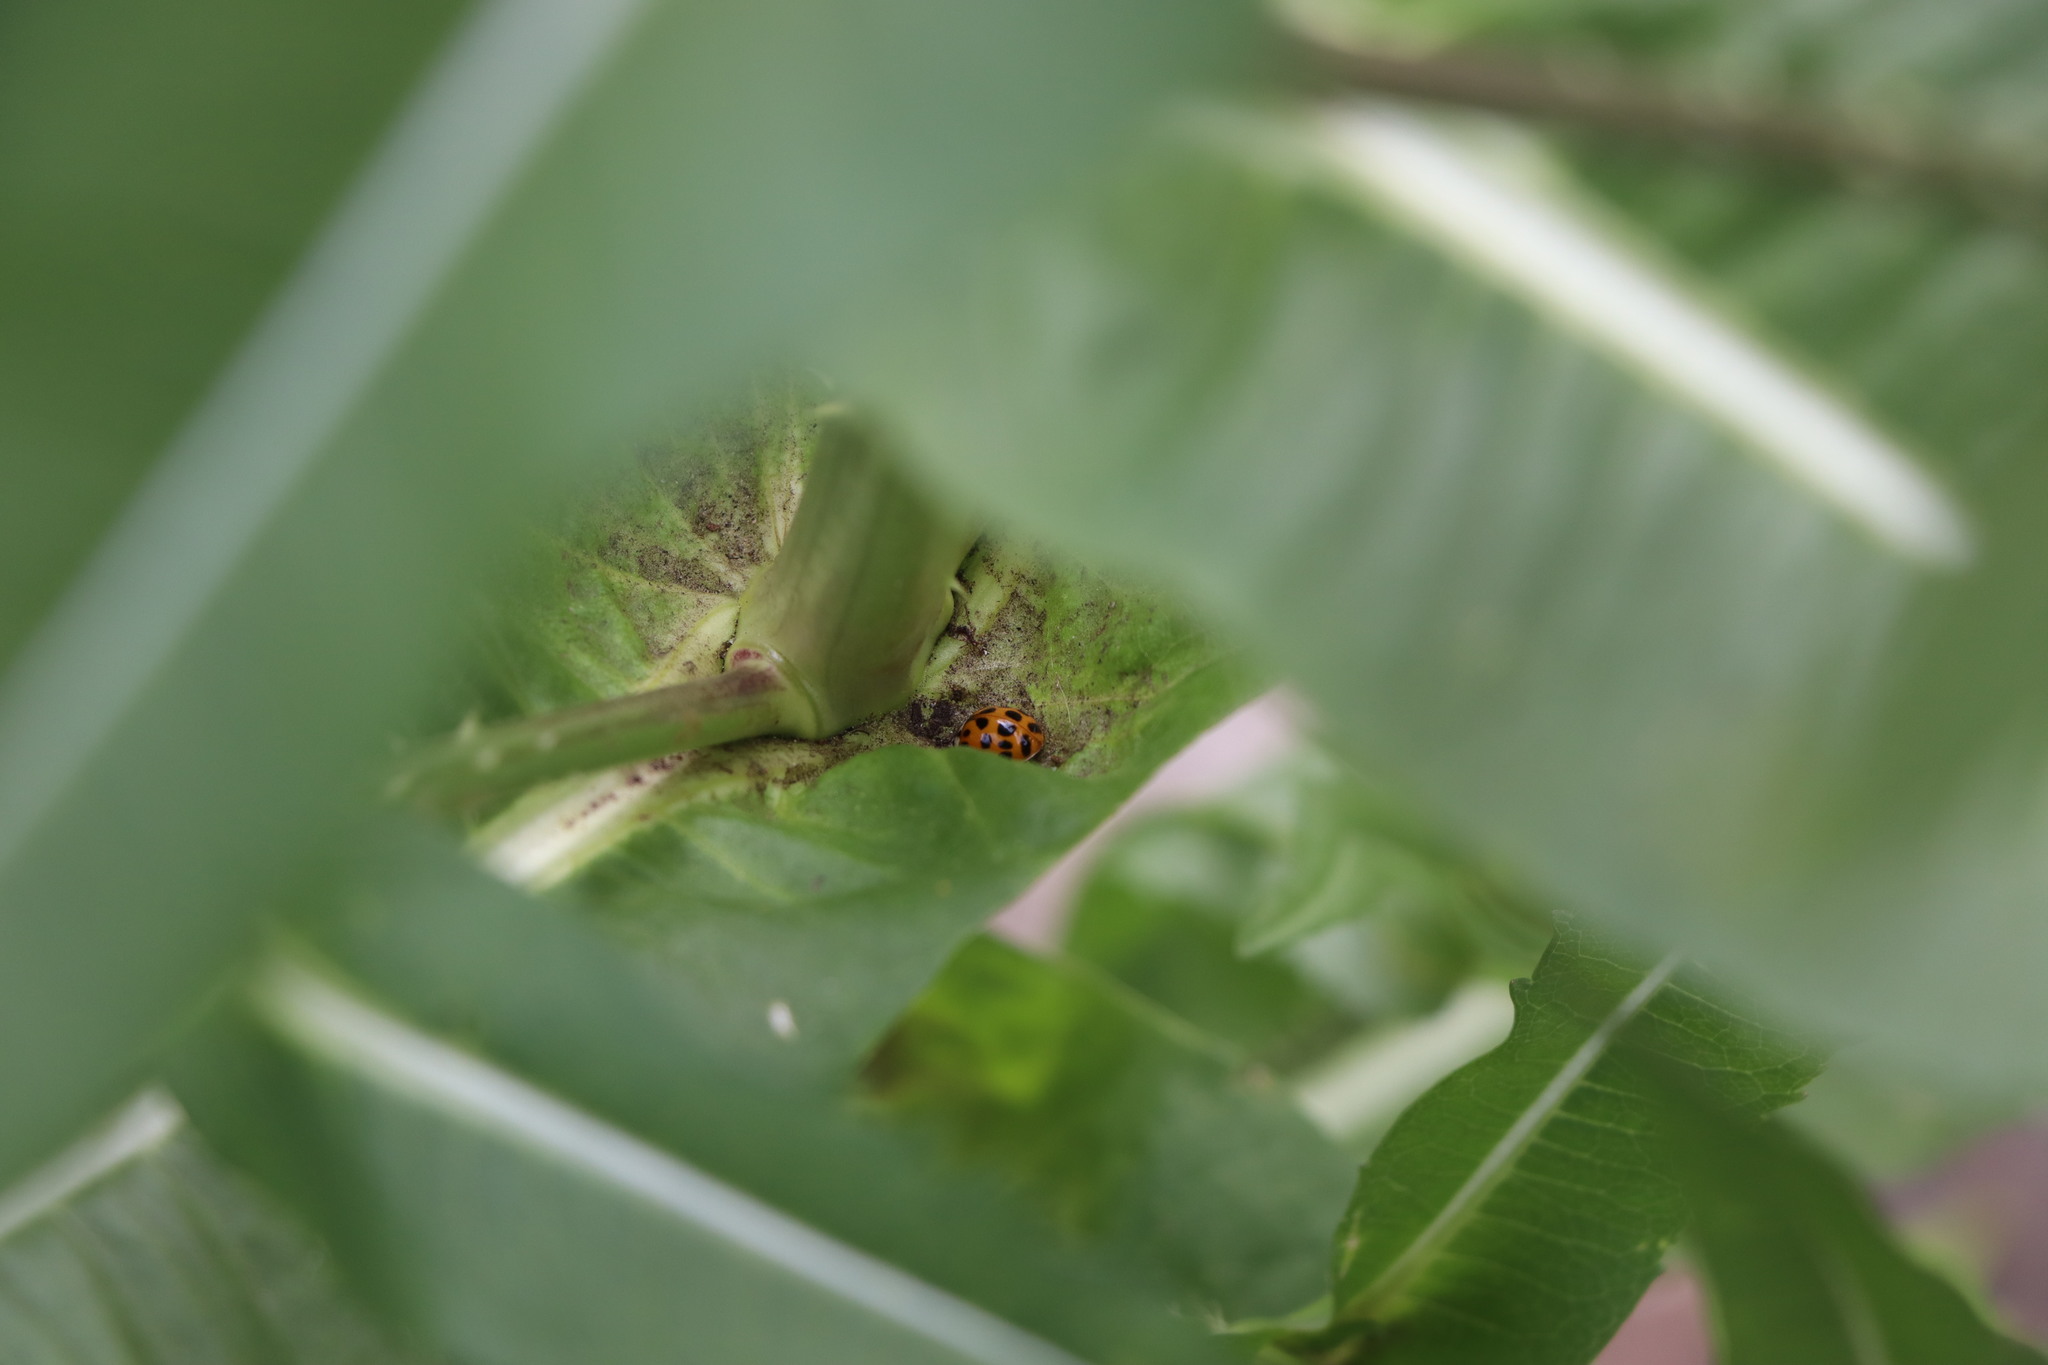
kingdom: Animalia
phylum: Arthropoda
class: Insecta
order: Coleoptera
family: Coccinellidae
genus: Harmonia
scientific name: Harmonia axyridis
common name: Harlequin ladybird
